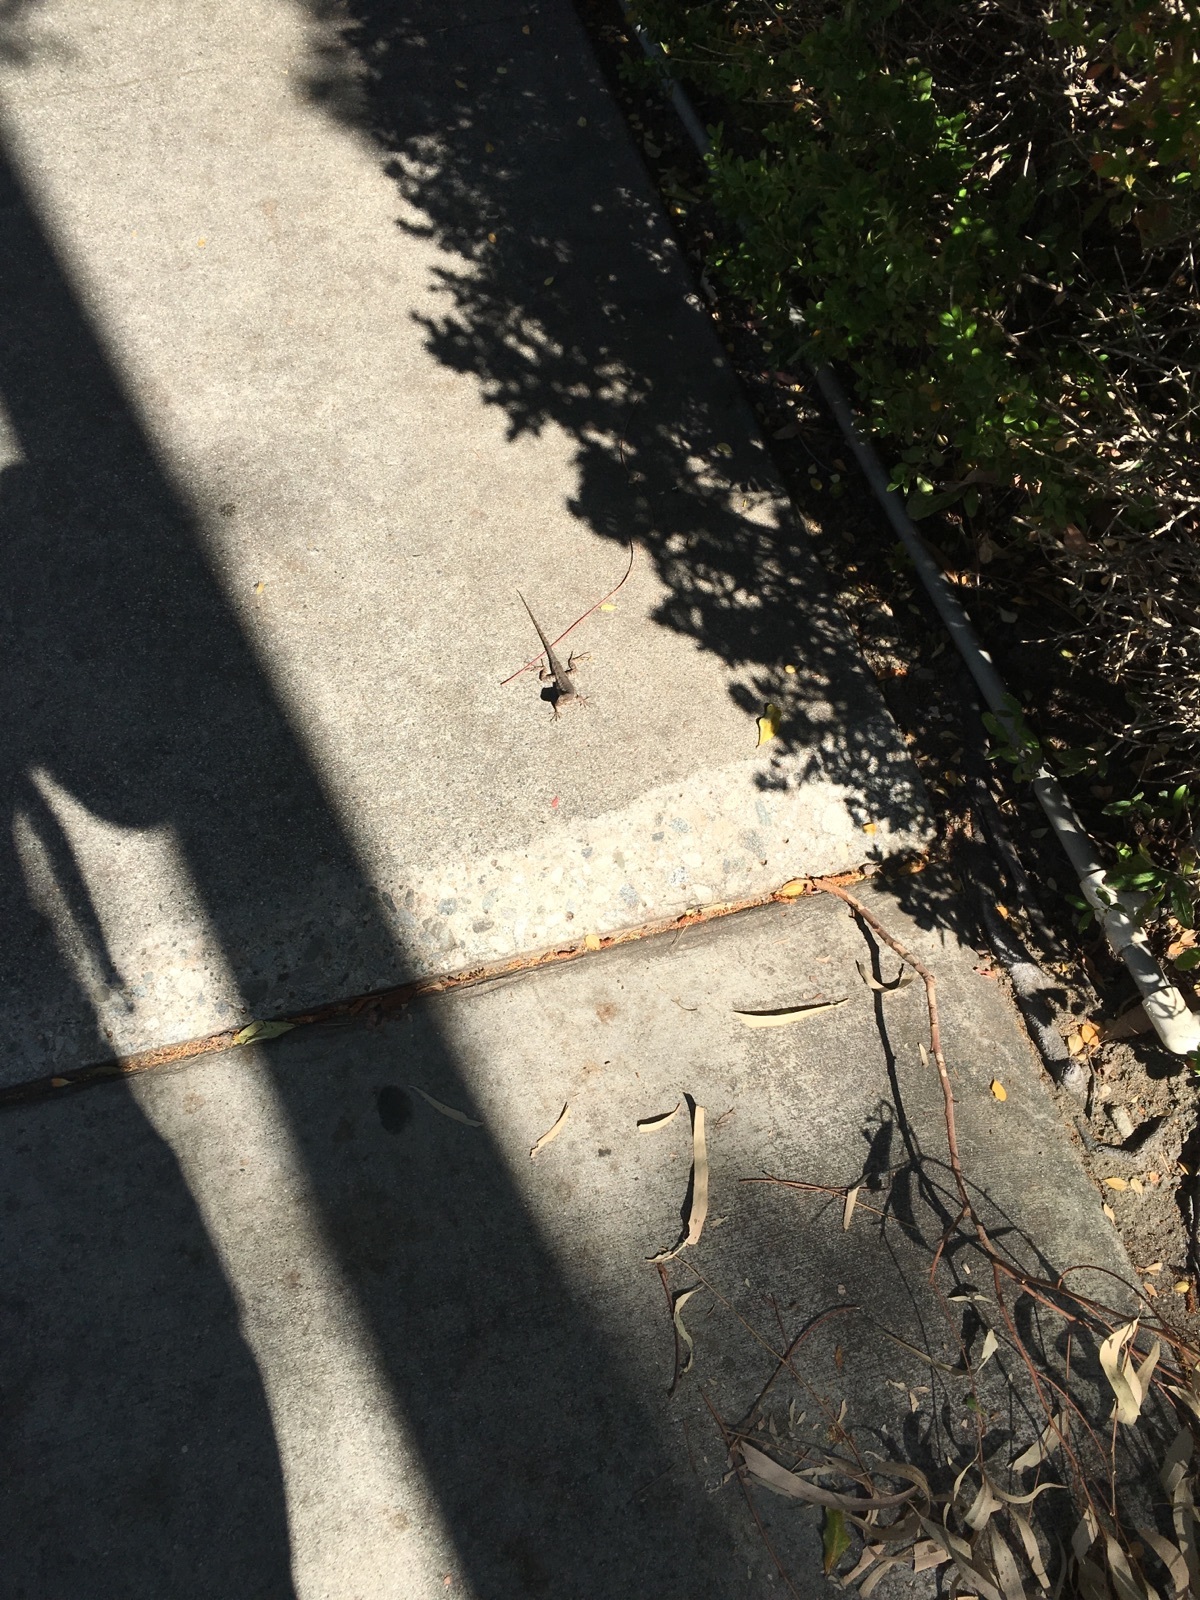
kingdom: Animalia
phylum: Chordata
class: Squamata
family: Phrynosomatidae
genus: Sceloporus
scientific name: Sceloporus occidentalis
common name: Western fence lizard
